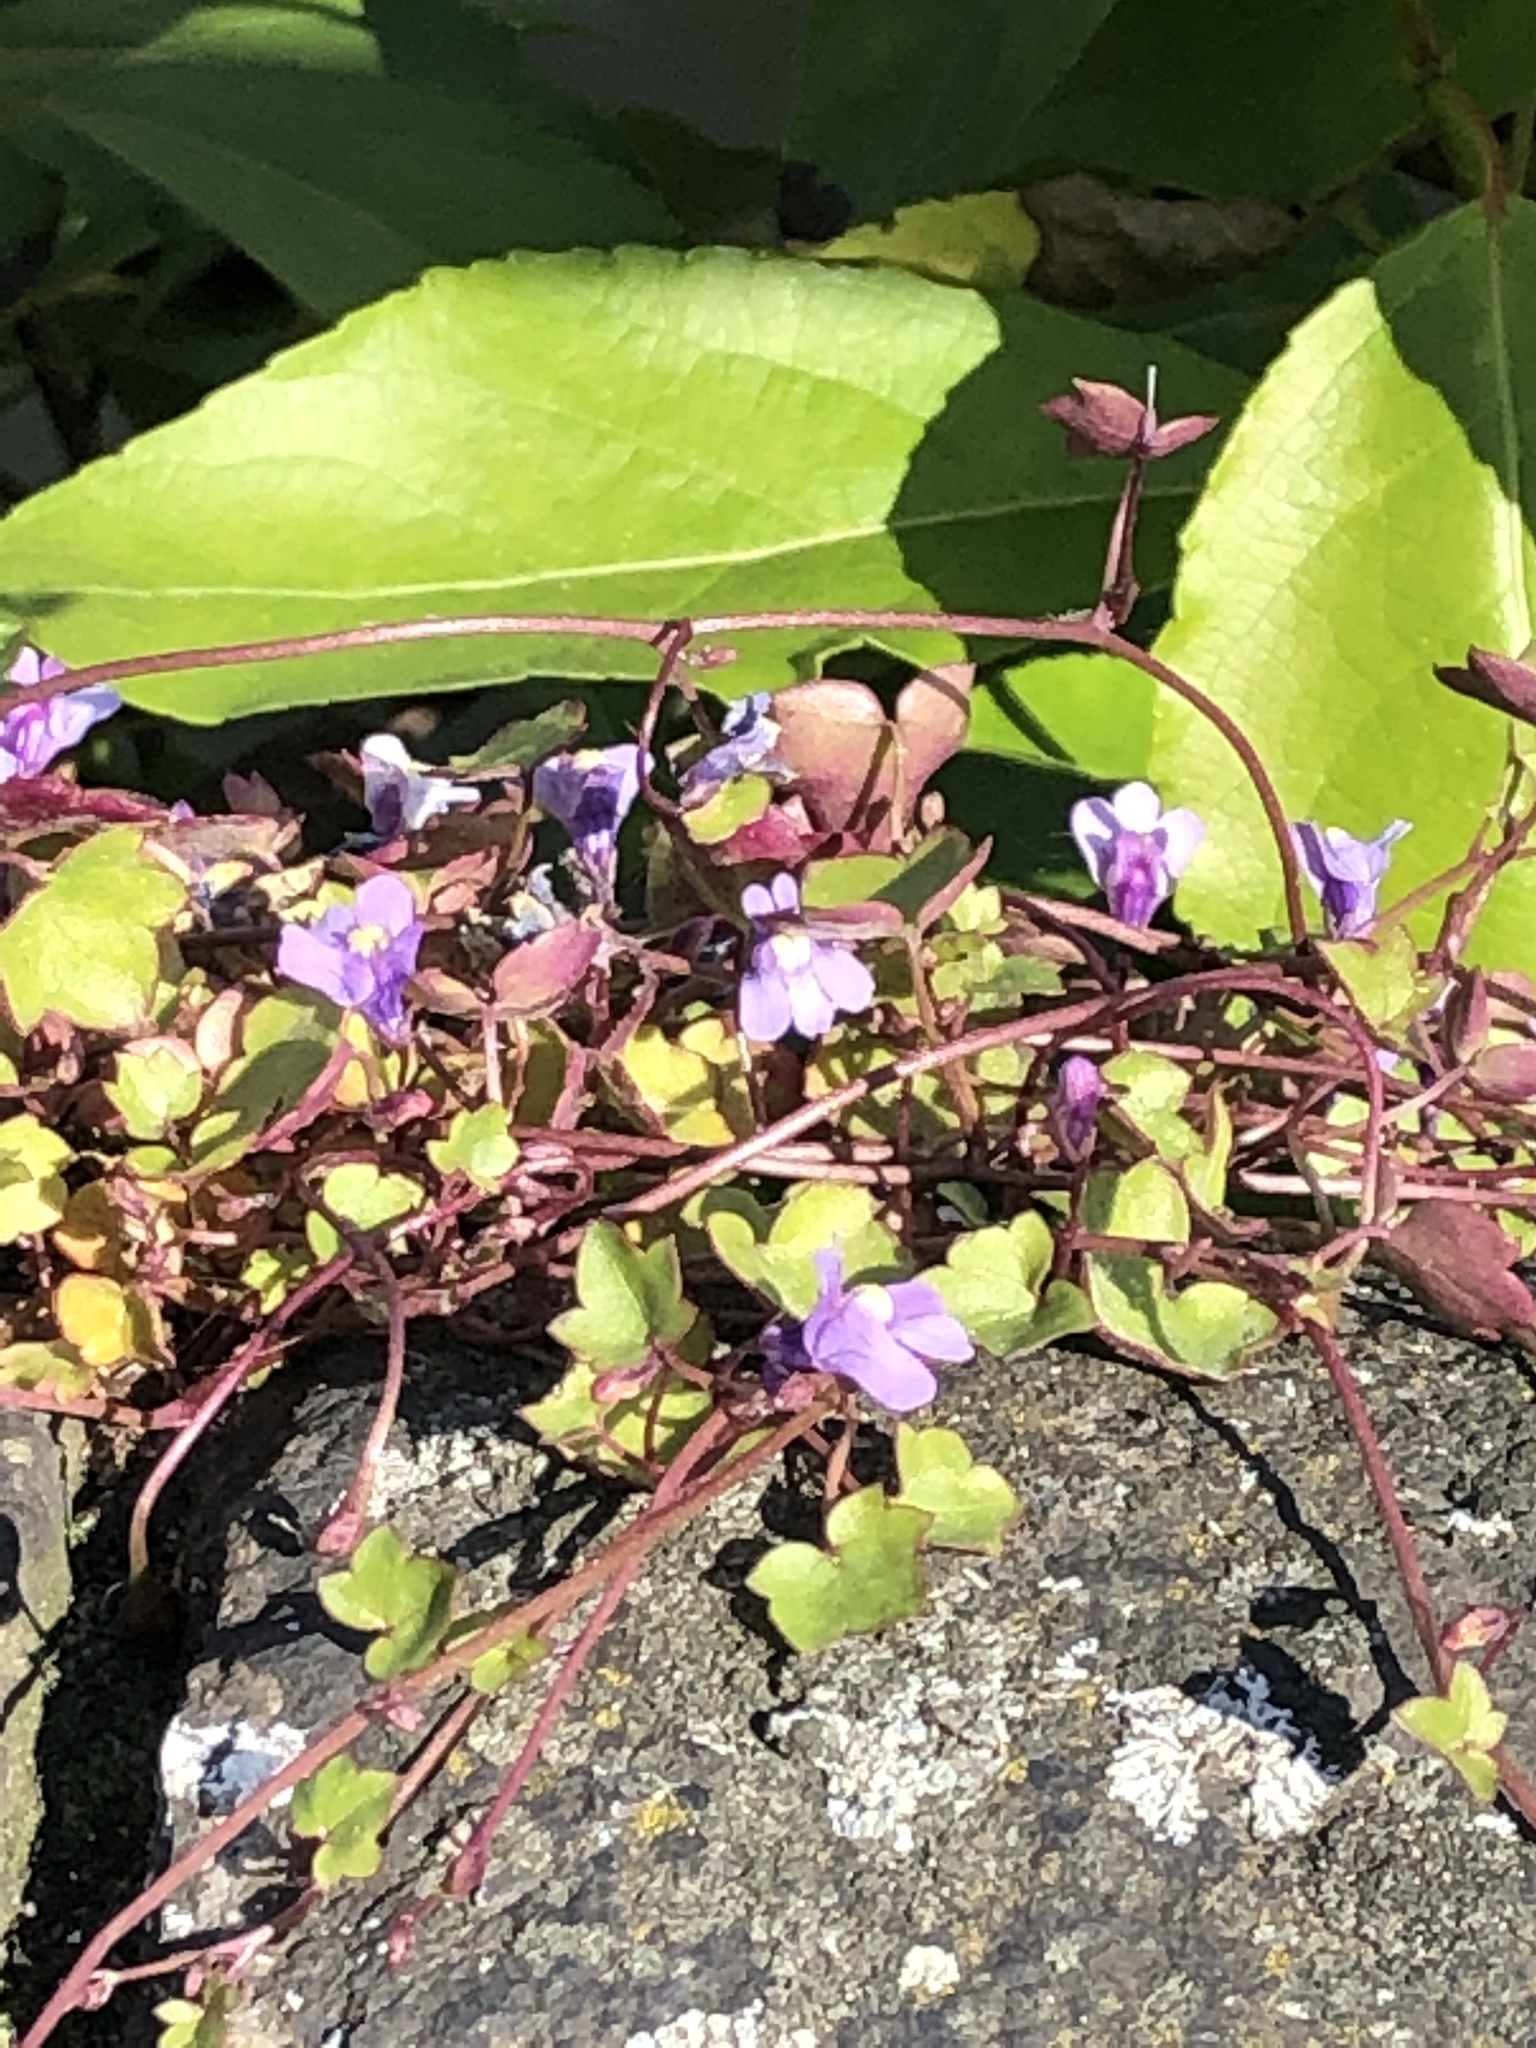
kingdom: Plantae
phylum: Tracheophyta
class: Magnoliopsida
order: Lamiales
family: Plantaginaceae
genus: Cymbalaria
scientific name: Cymbalaria muralis
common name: Ivy-leaved toadflax
